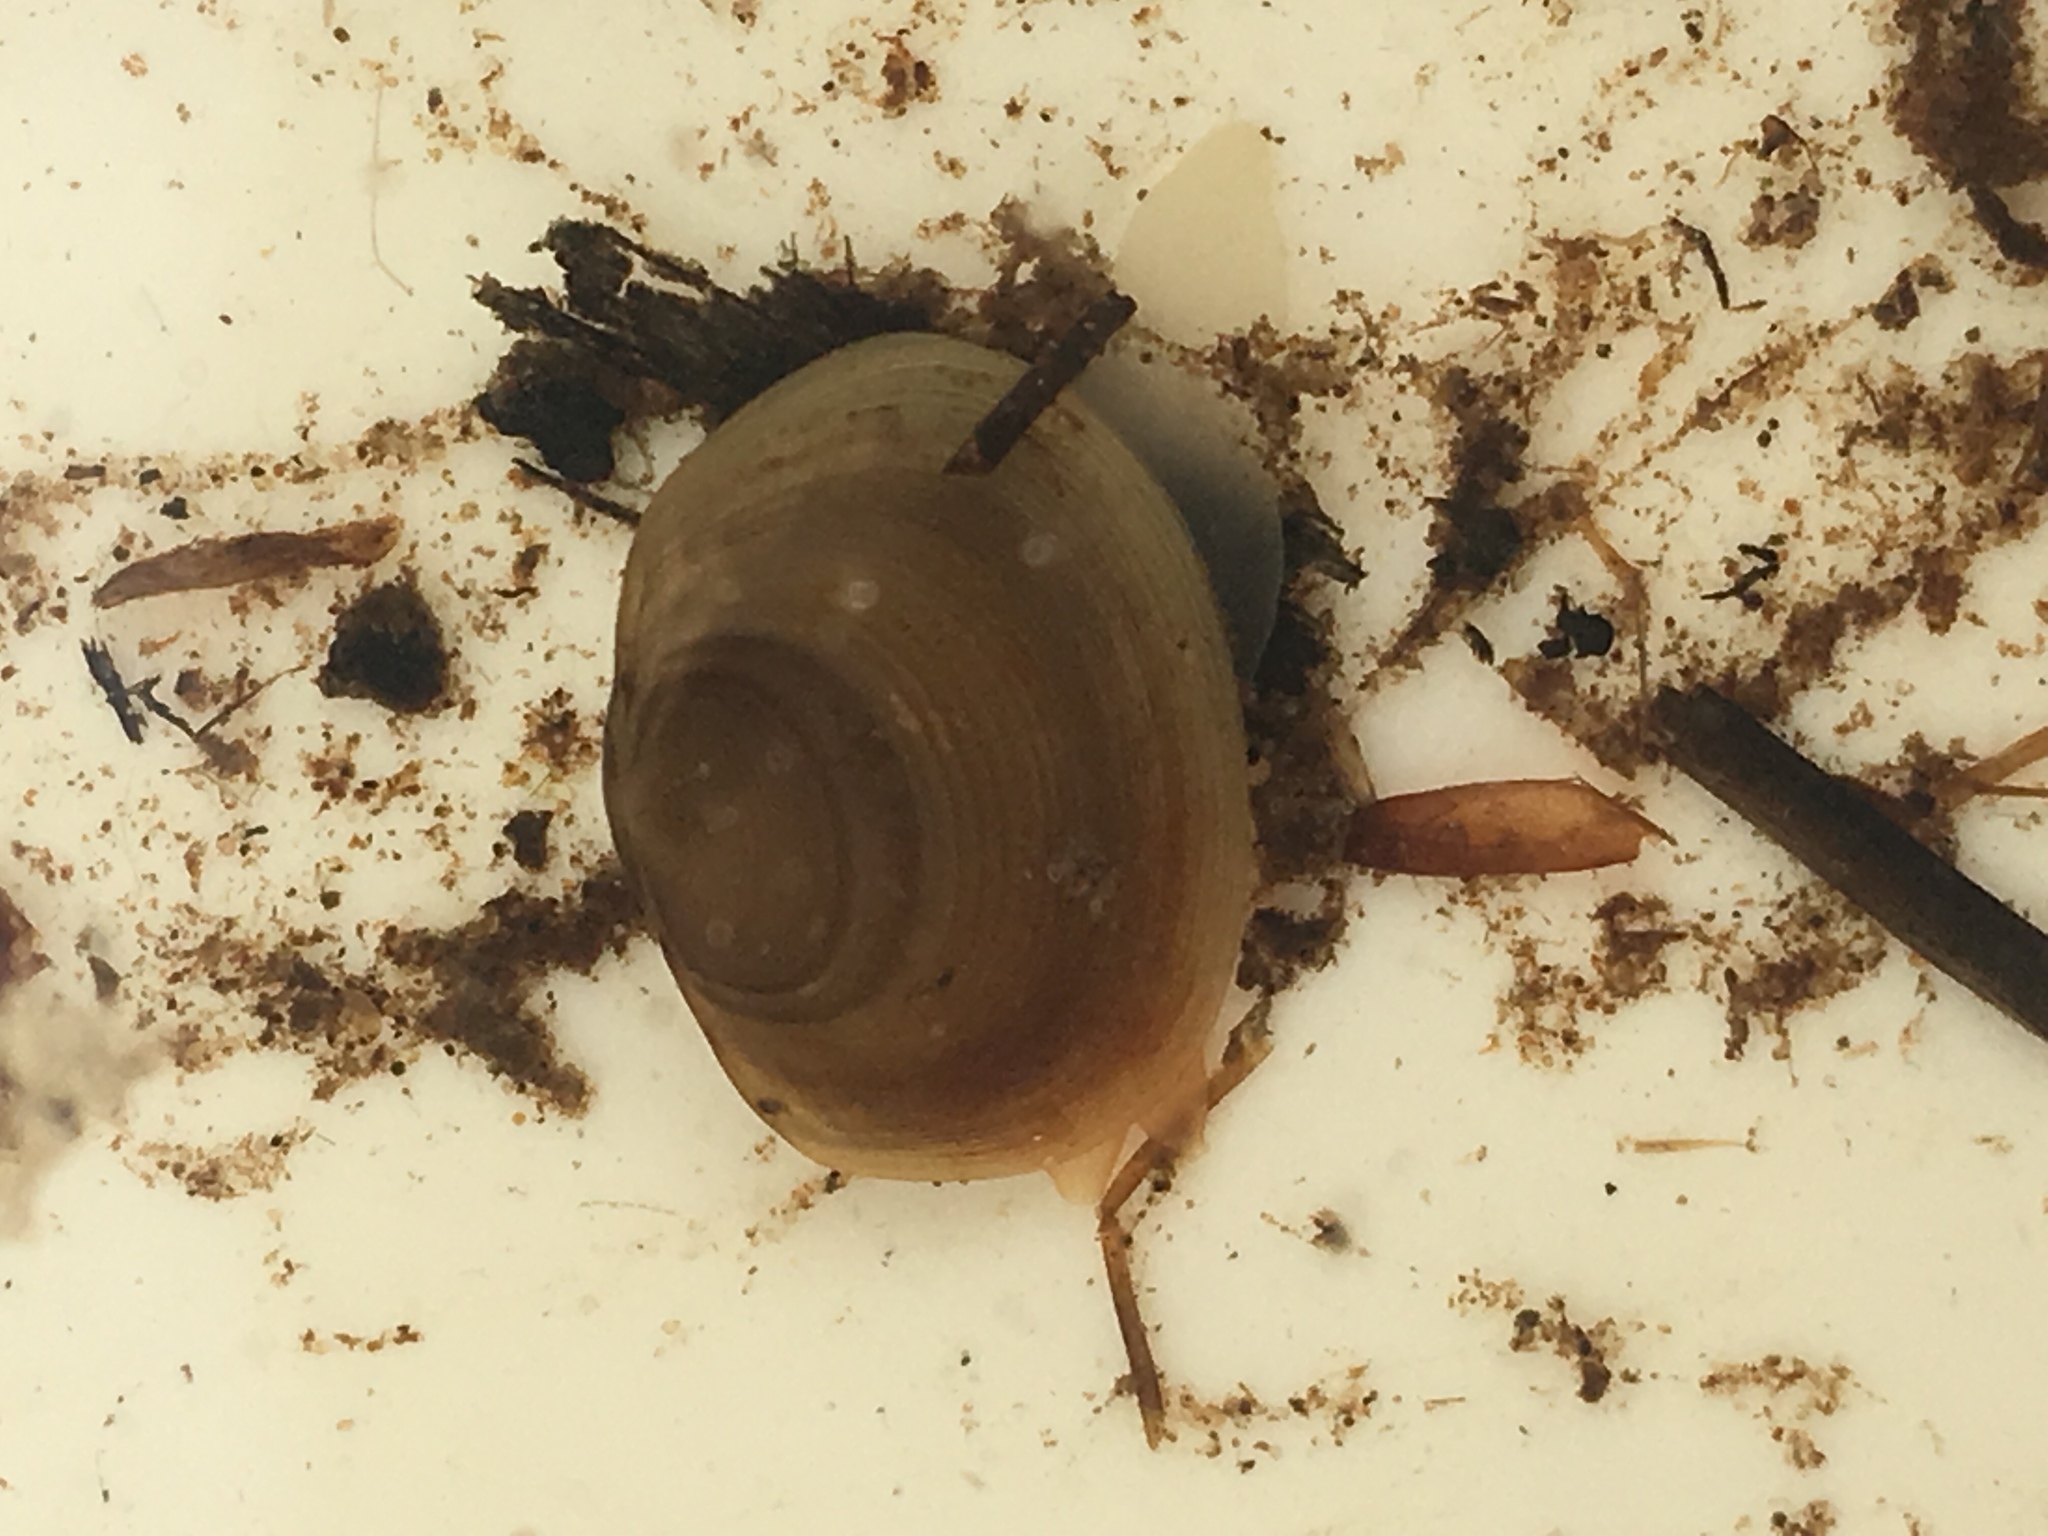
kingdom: Animalia
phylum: Mollusca
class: Bivalvia
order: Sphaeriida
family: Sphaeriidae
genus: Sphaerium
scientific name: Sphaerium simile
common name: Grooved fingernailclam
